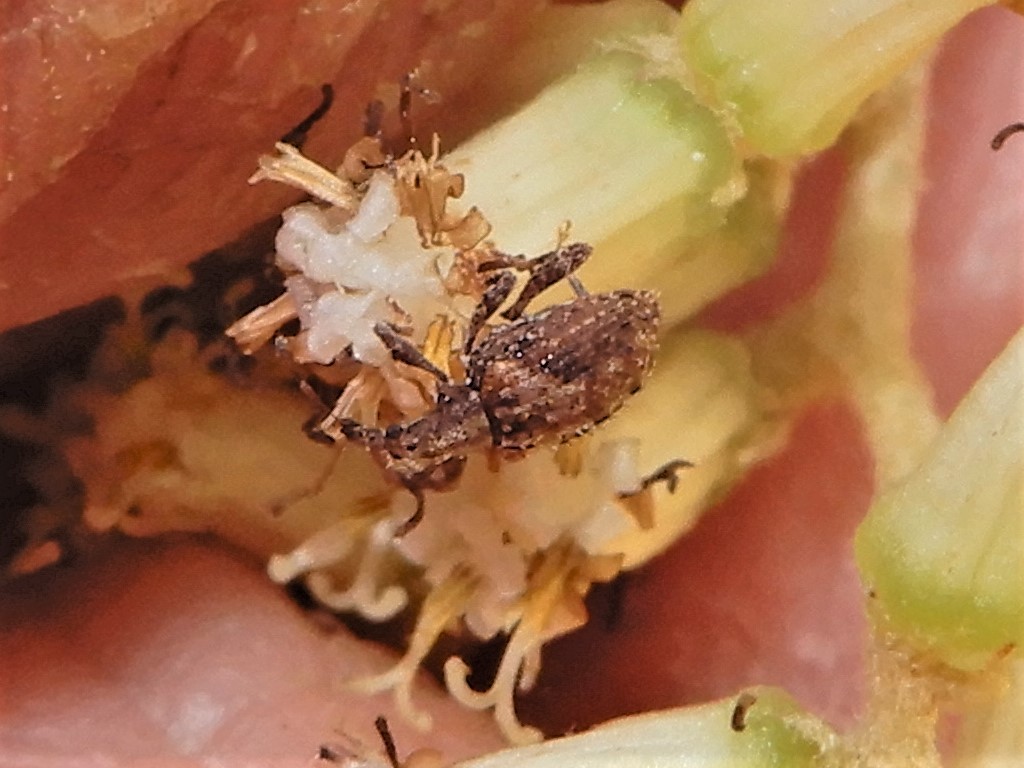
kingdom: Animalia
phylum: Arthropoda
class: Insecta
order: Coleoptera
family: Curculionidae
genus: Tysius
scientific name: Tysius bicornis
